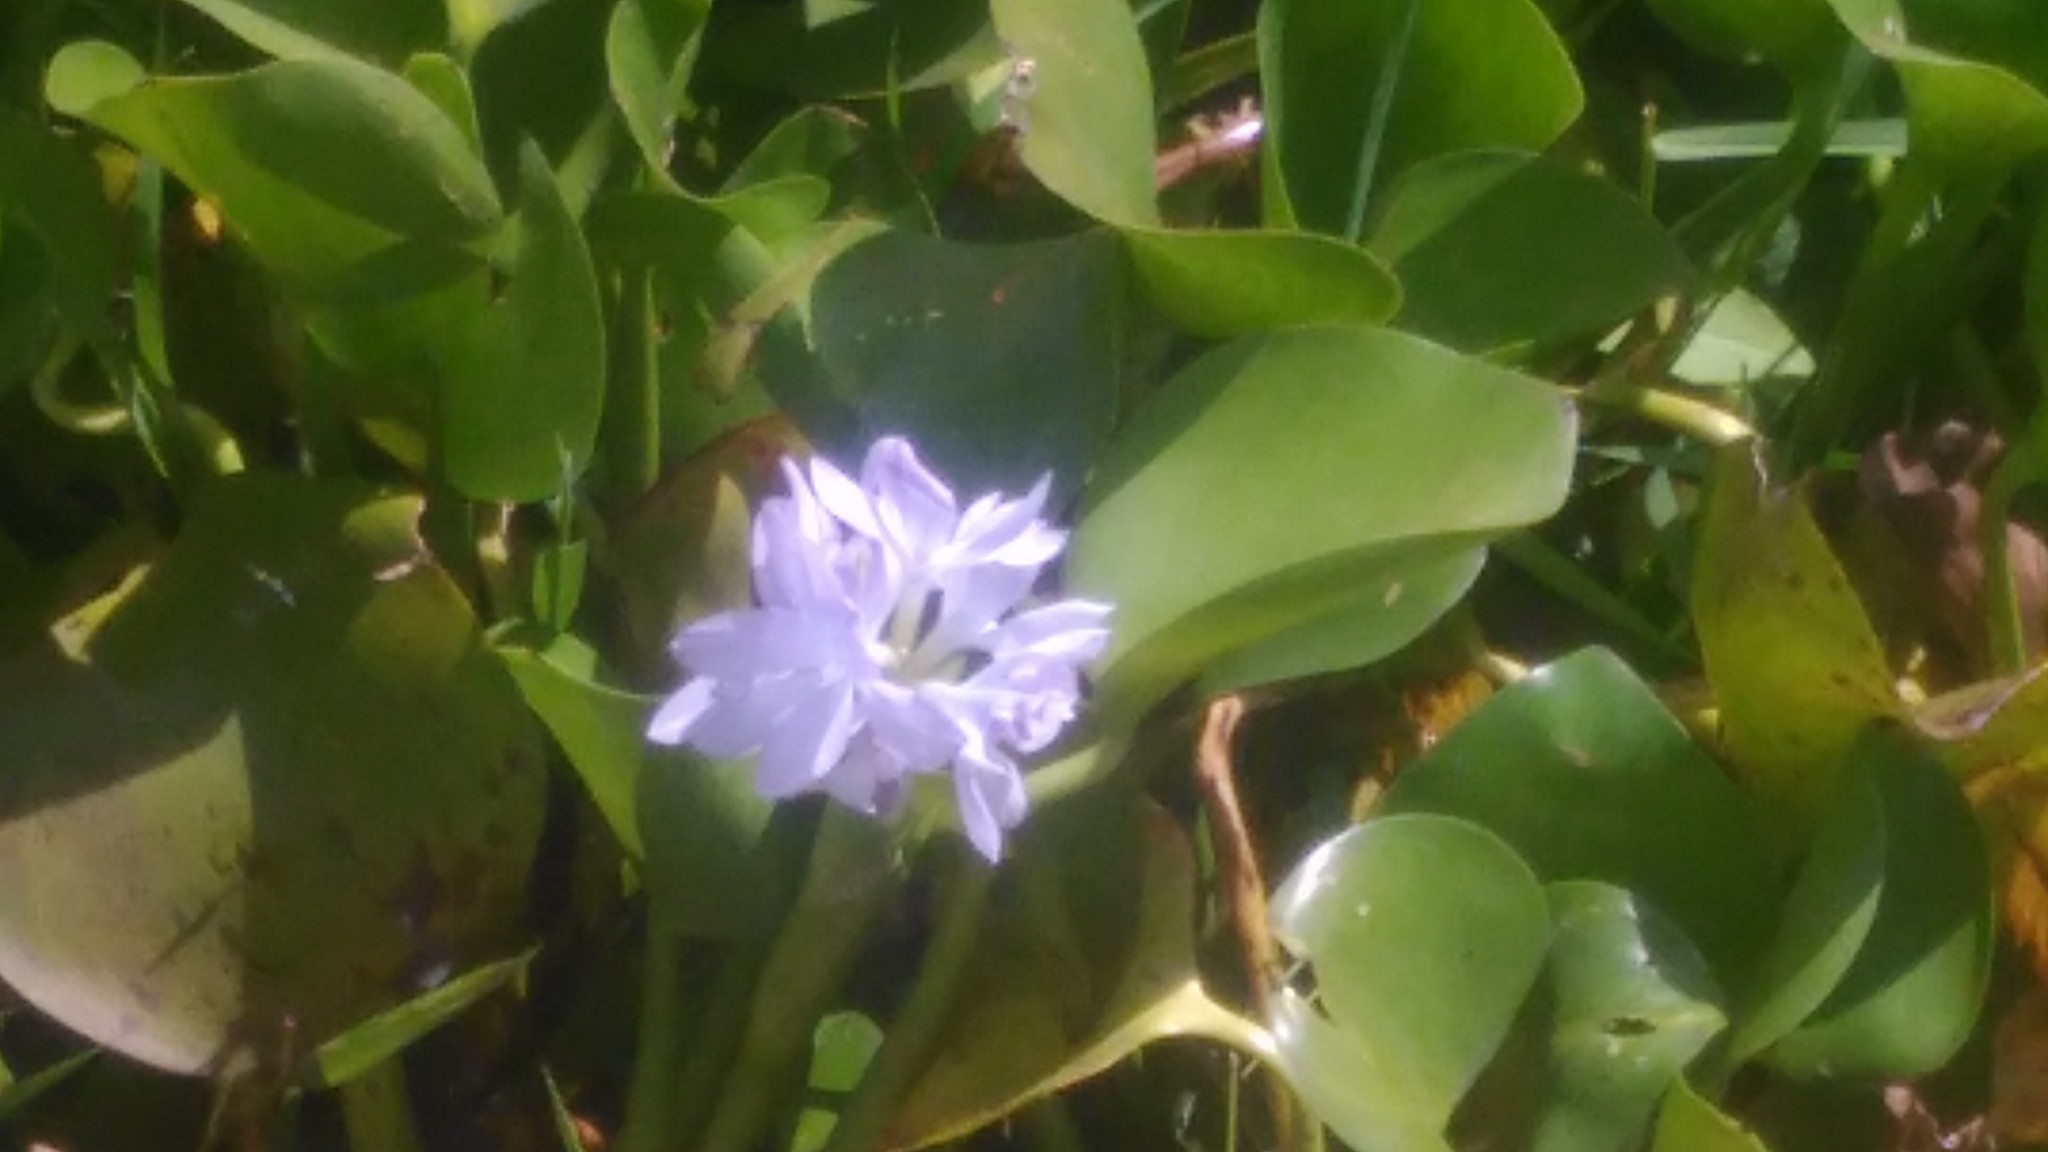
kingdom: Plantae
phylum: Tracheophyta
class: Liliopsida
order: Commelinales
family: Pontederiaceae
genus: Pontederia
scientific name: Pontederia crassipes
